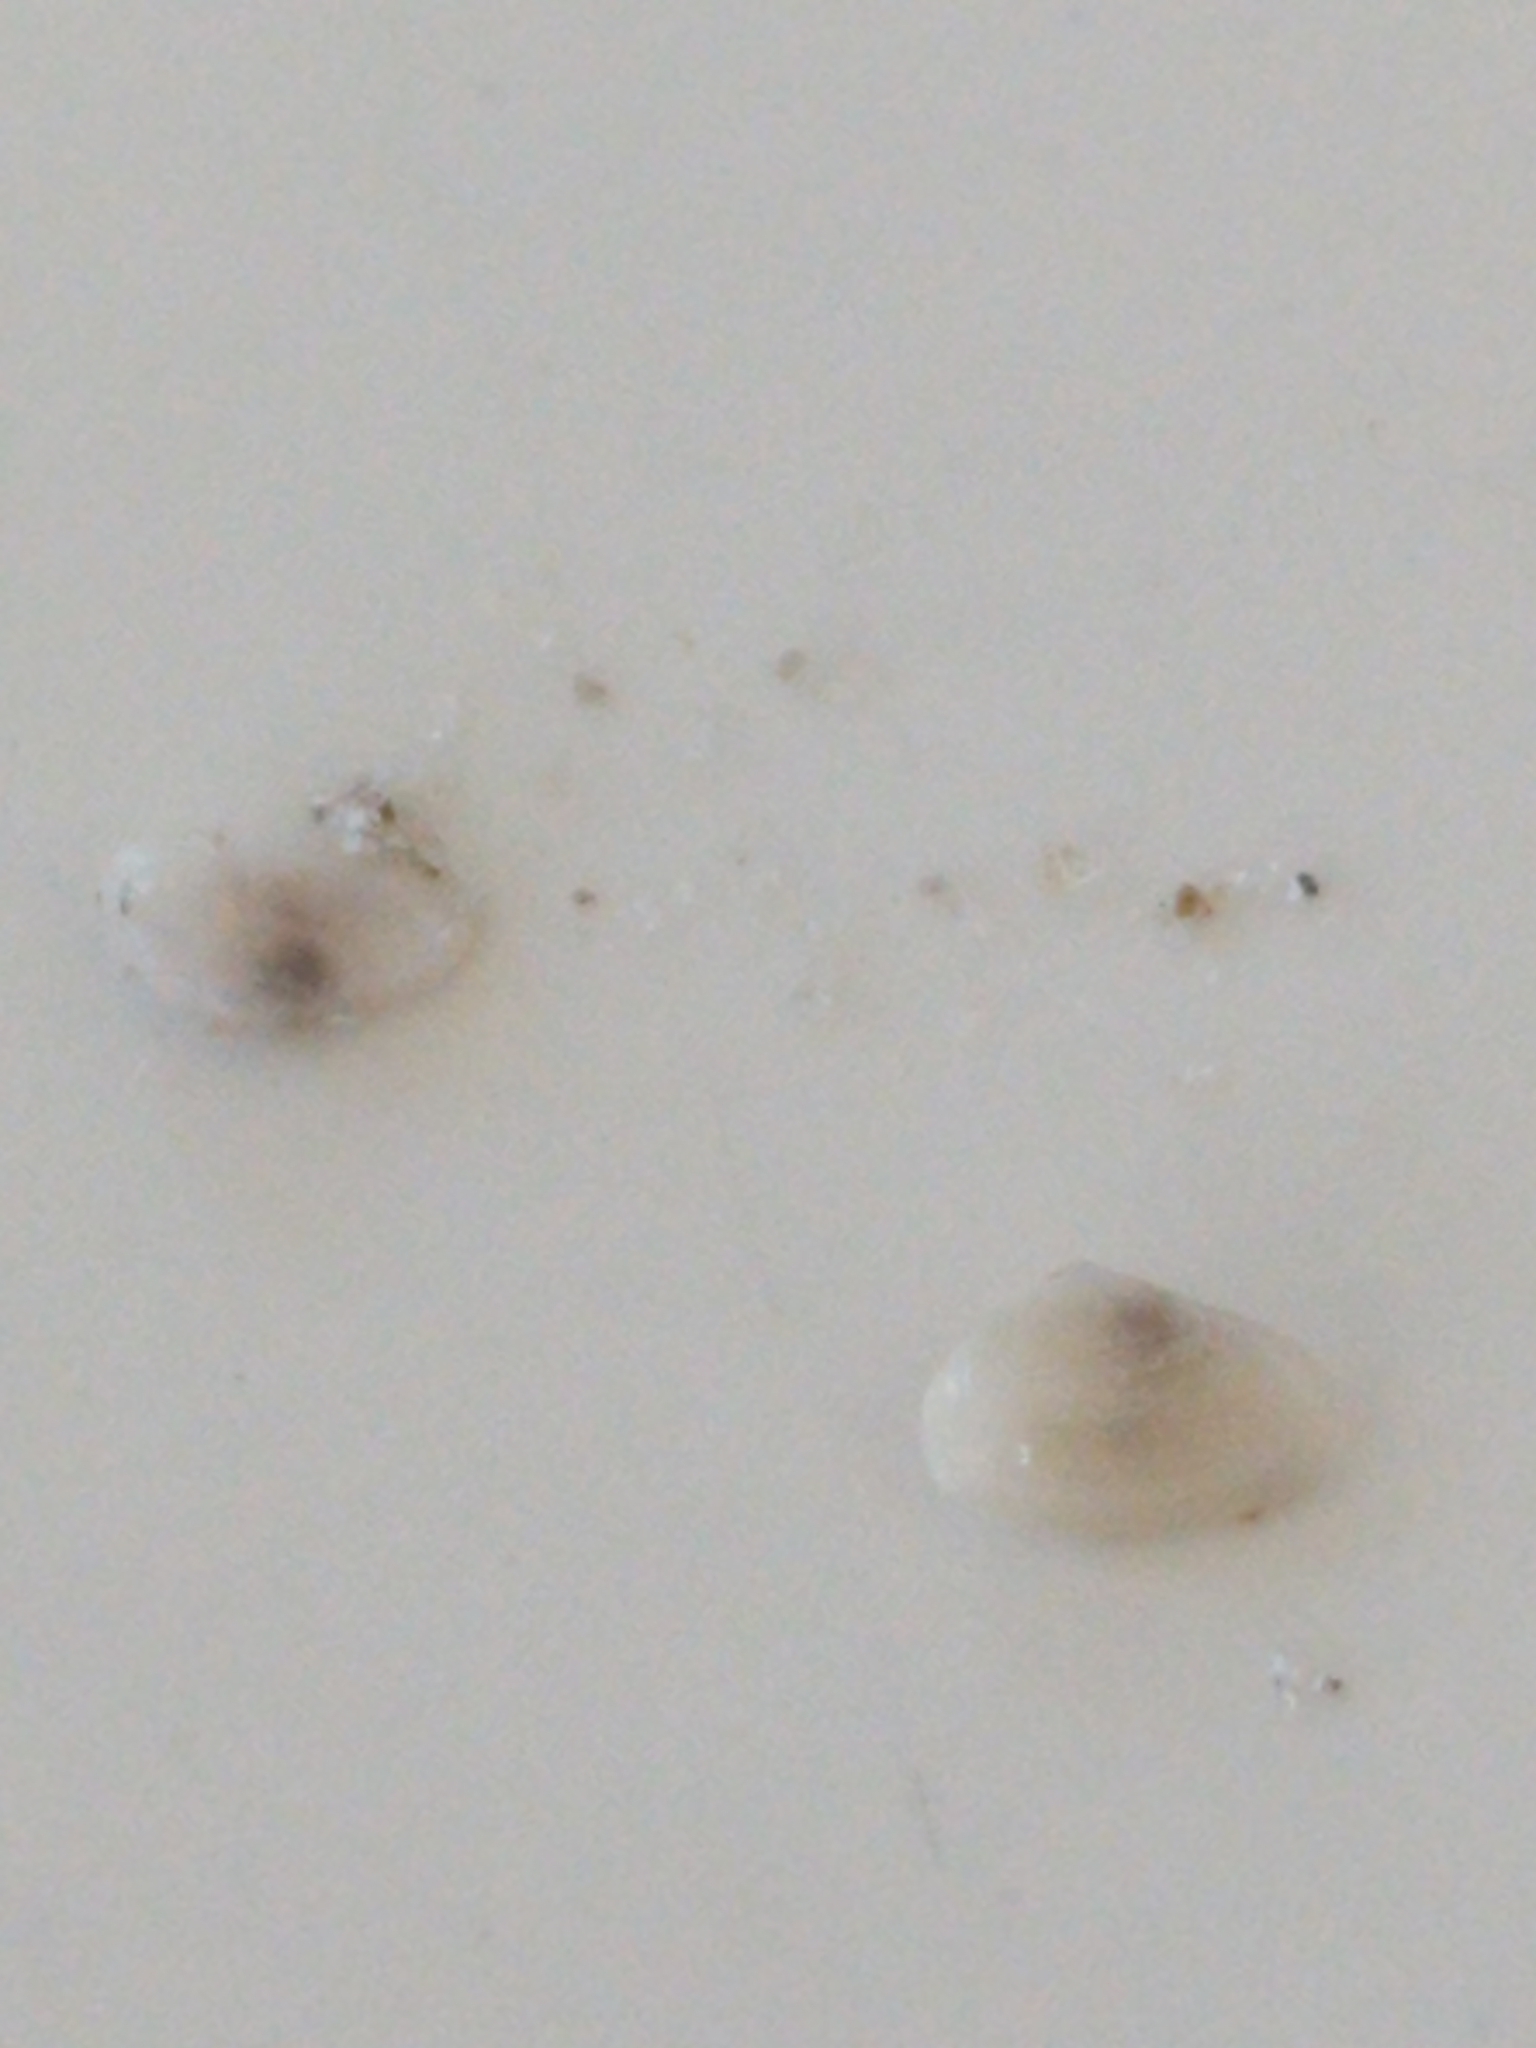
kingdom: Animalia
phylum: Mollusca
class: Bivalvia
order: Cardiida
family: Donacidae
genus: Donax
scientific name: Donax fossor
